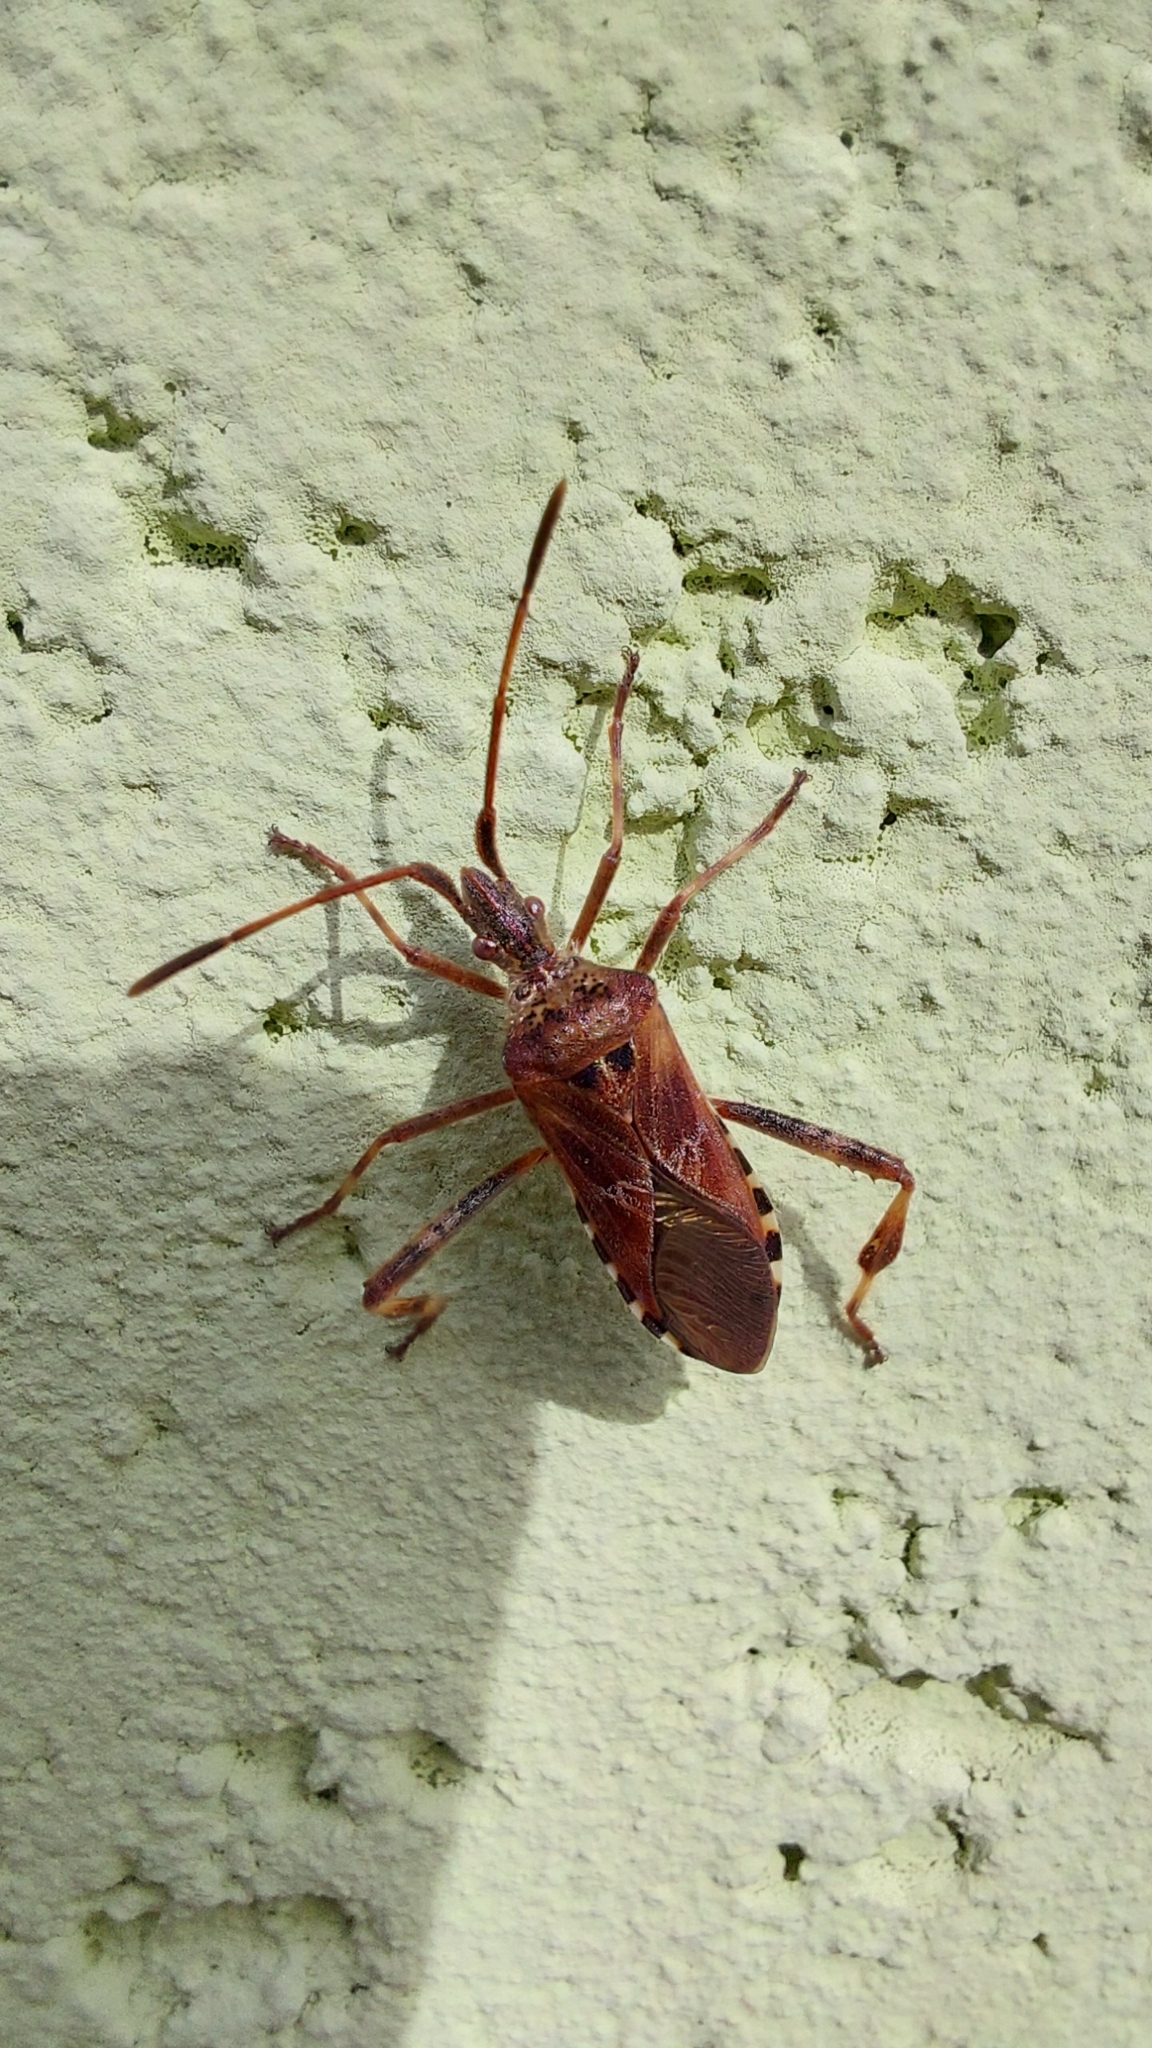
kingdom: Animalia
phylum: Arthropoda
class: Insecta
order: Hemiptera
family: Coreidae
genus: Leptoglossus
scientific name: Leptoglossus occidentalis
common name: Western conifer-seed bug
